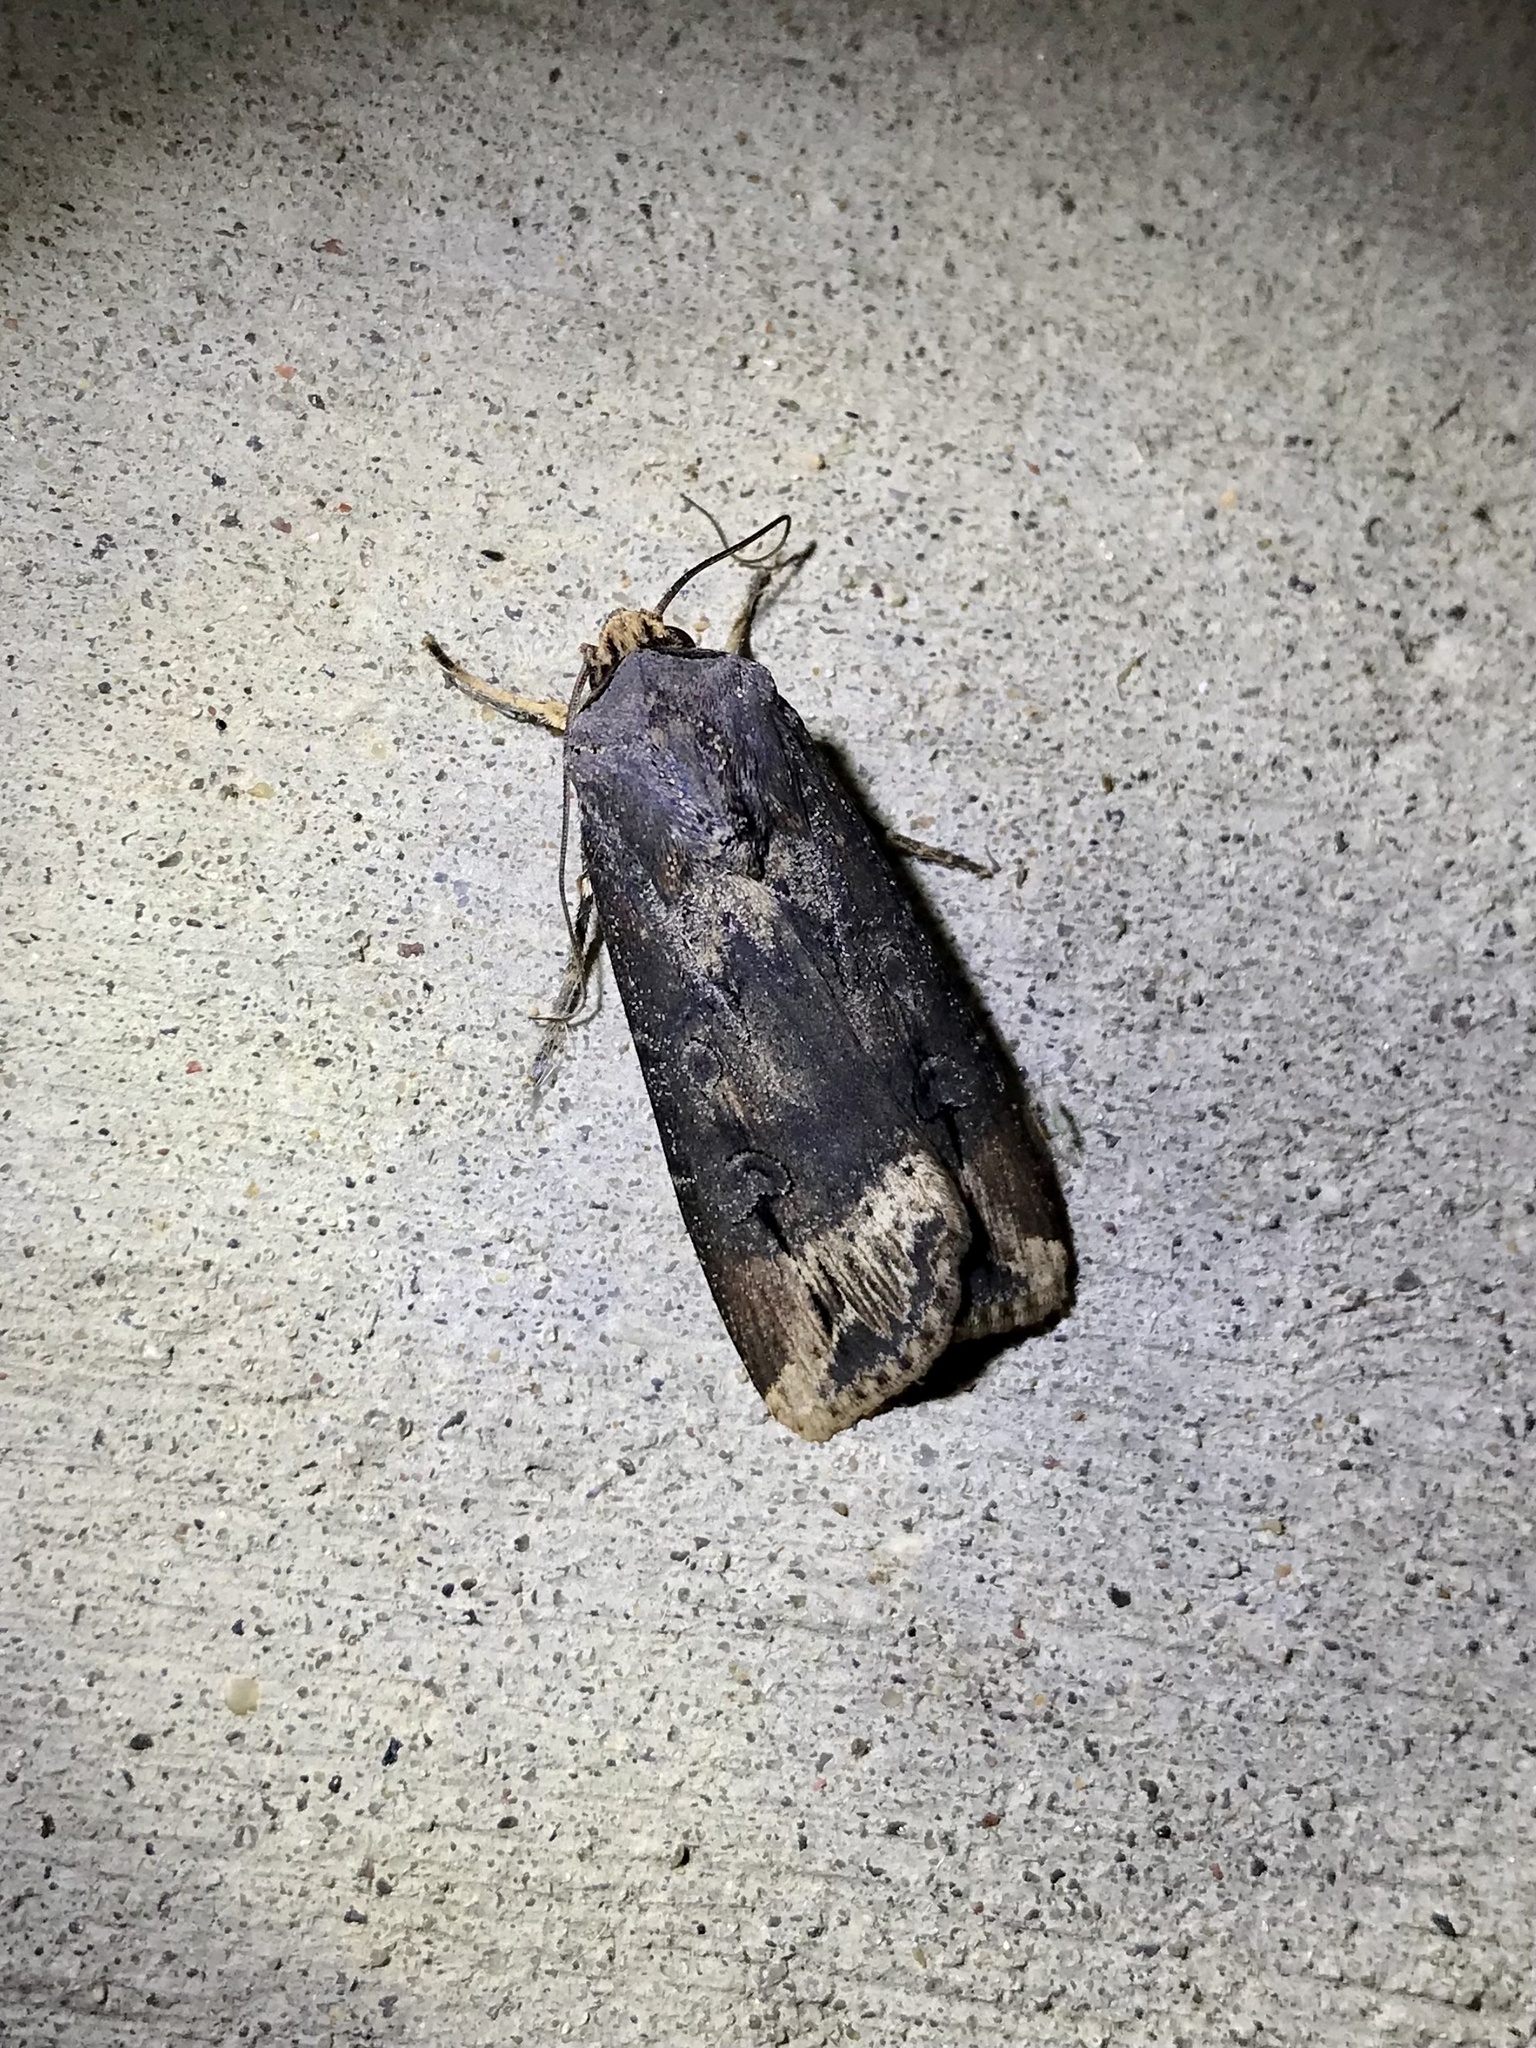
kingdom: Animalia
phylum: Arthropoda
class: Insecta
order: Lepidoptera
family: Noctuidae
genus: Agrotis
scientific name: Agrotis ipsilon
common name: Dark sword-grass
